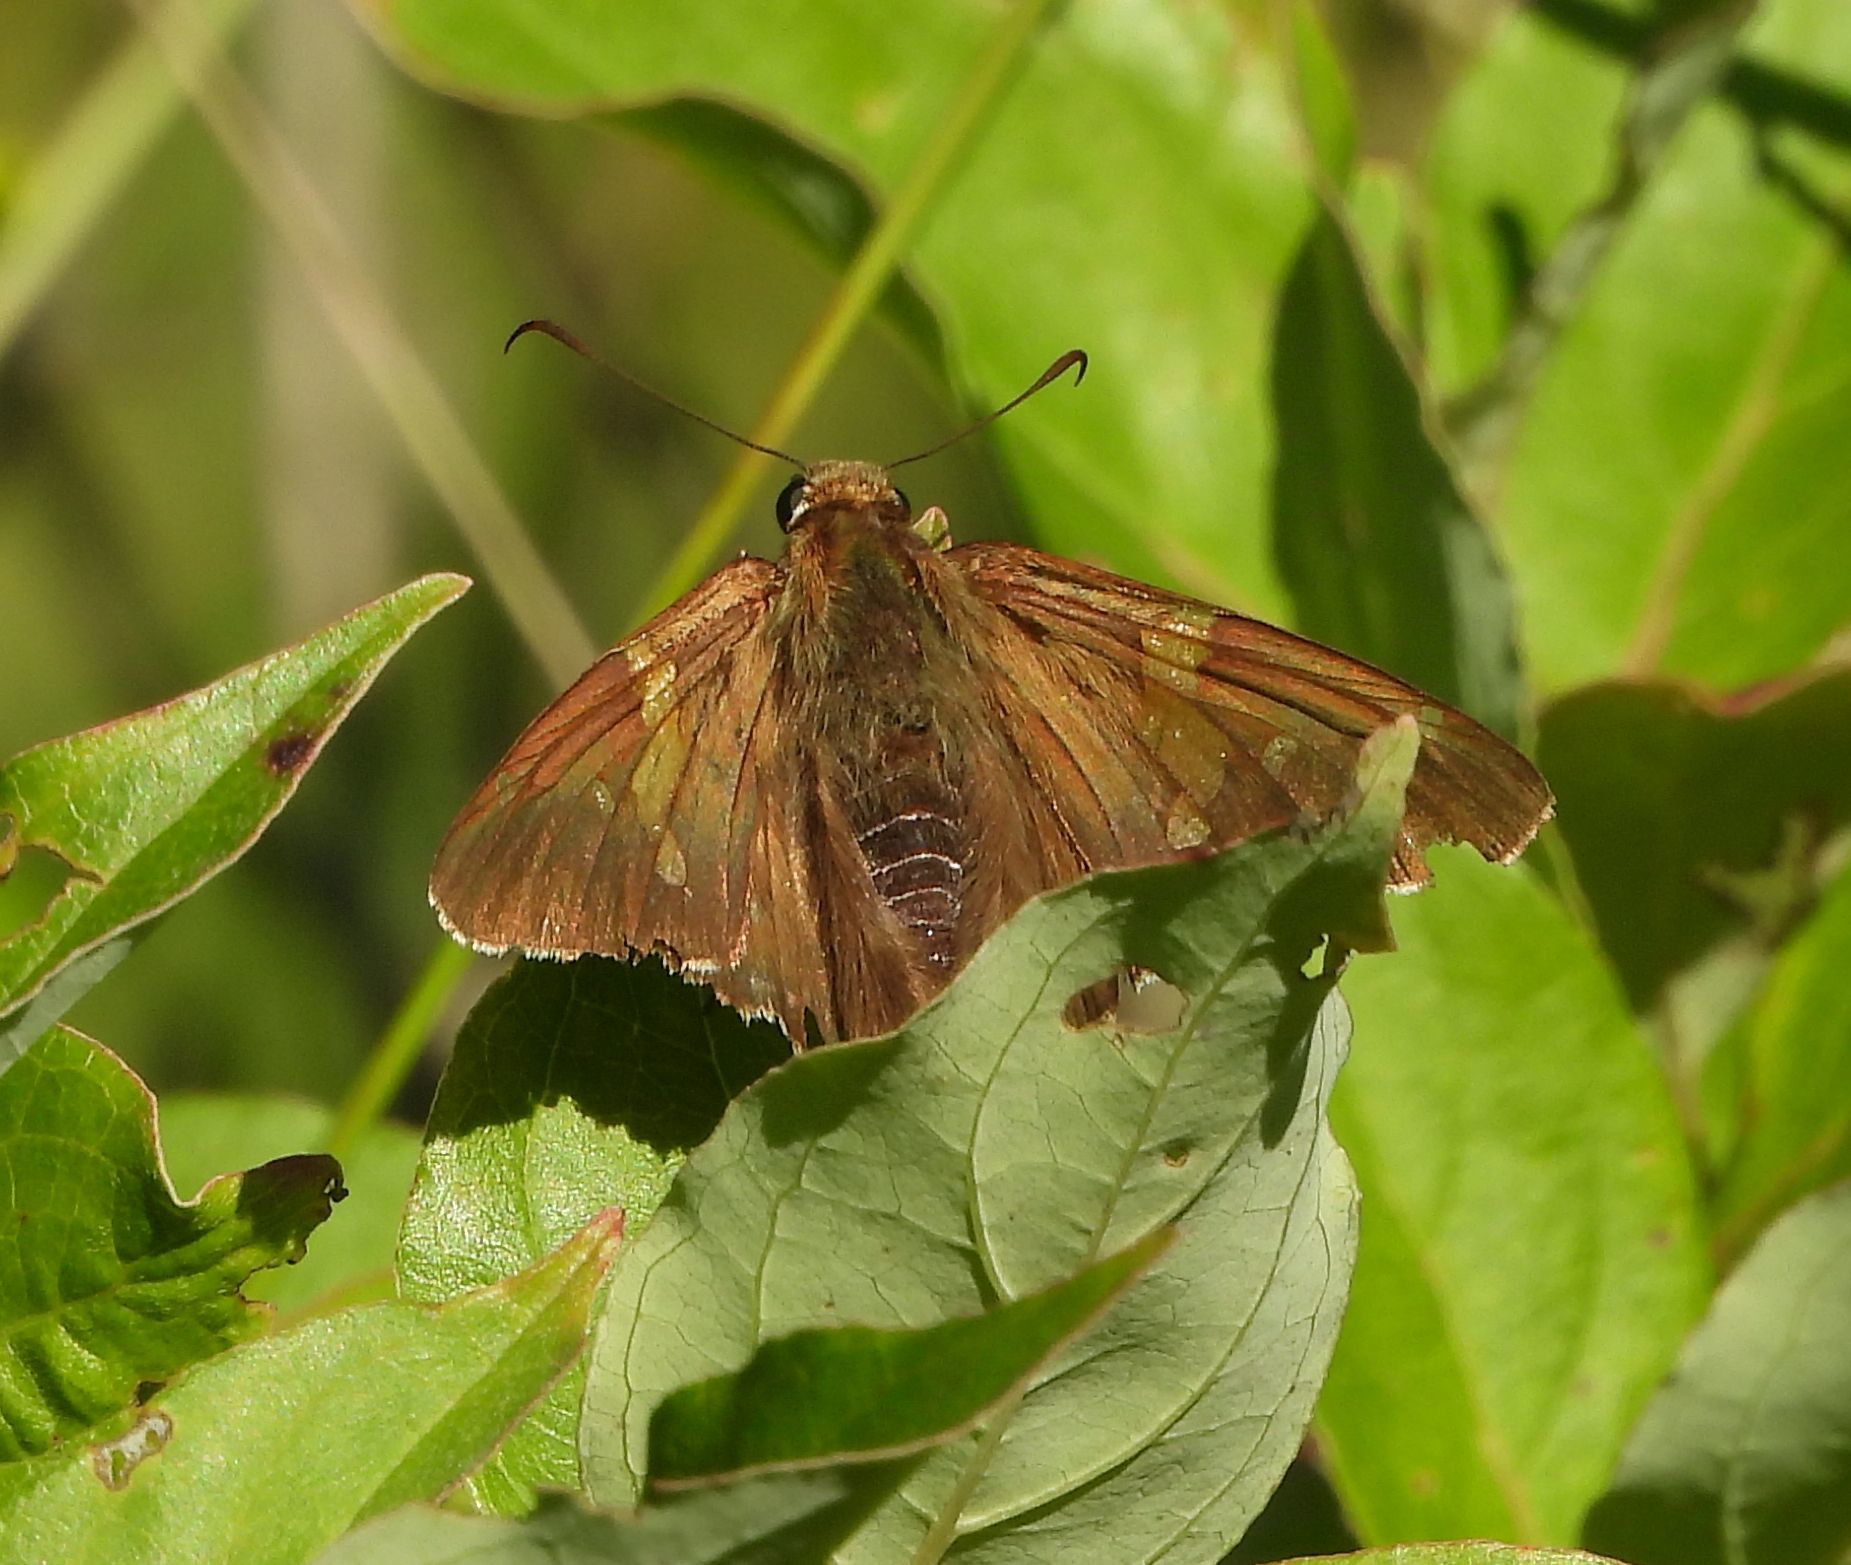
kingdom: Animalia
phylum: Arthropoda
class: Insecta
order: Lepidoptera
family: Hesperiidae
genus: Epargyreus
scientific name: Epargyreus clarus
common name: Silver-spotted skipper
